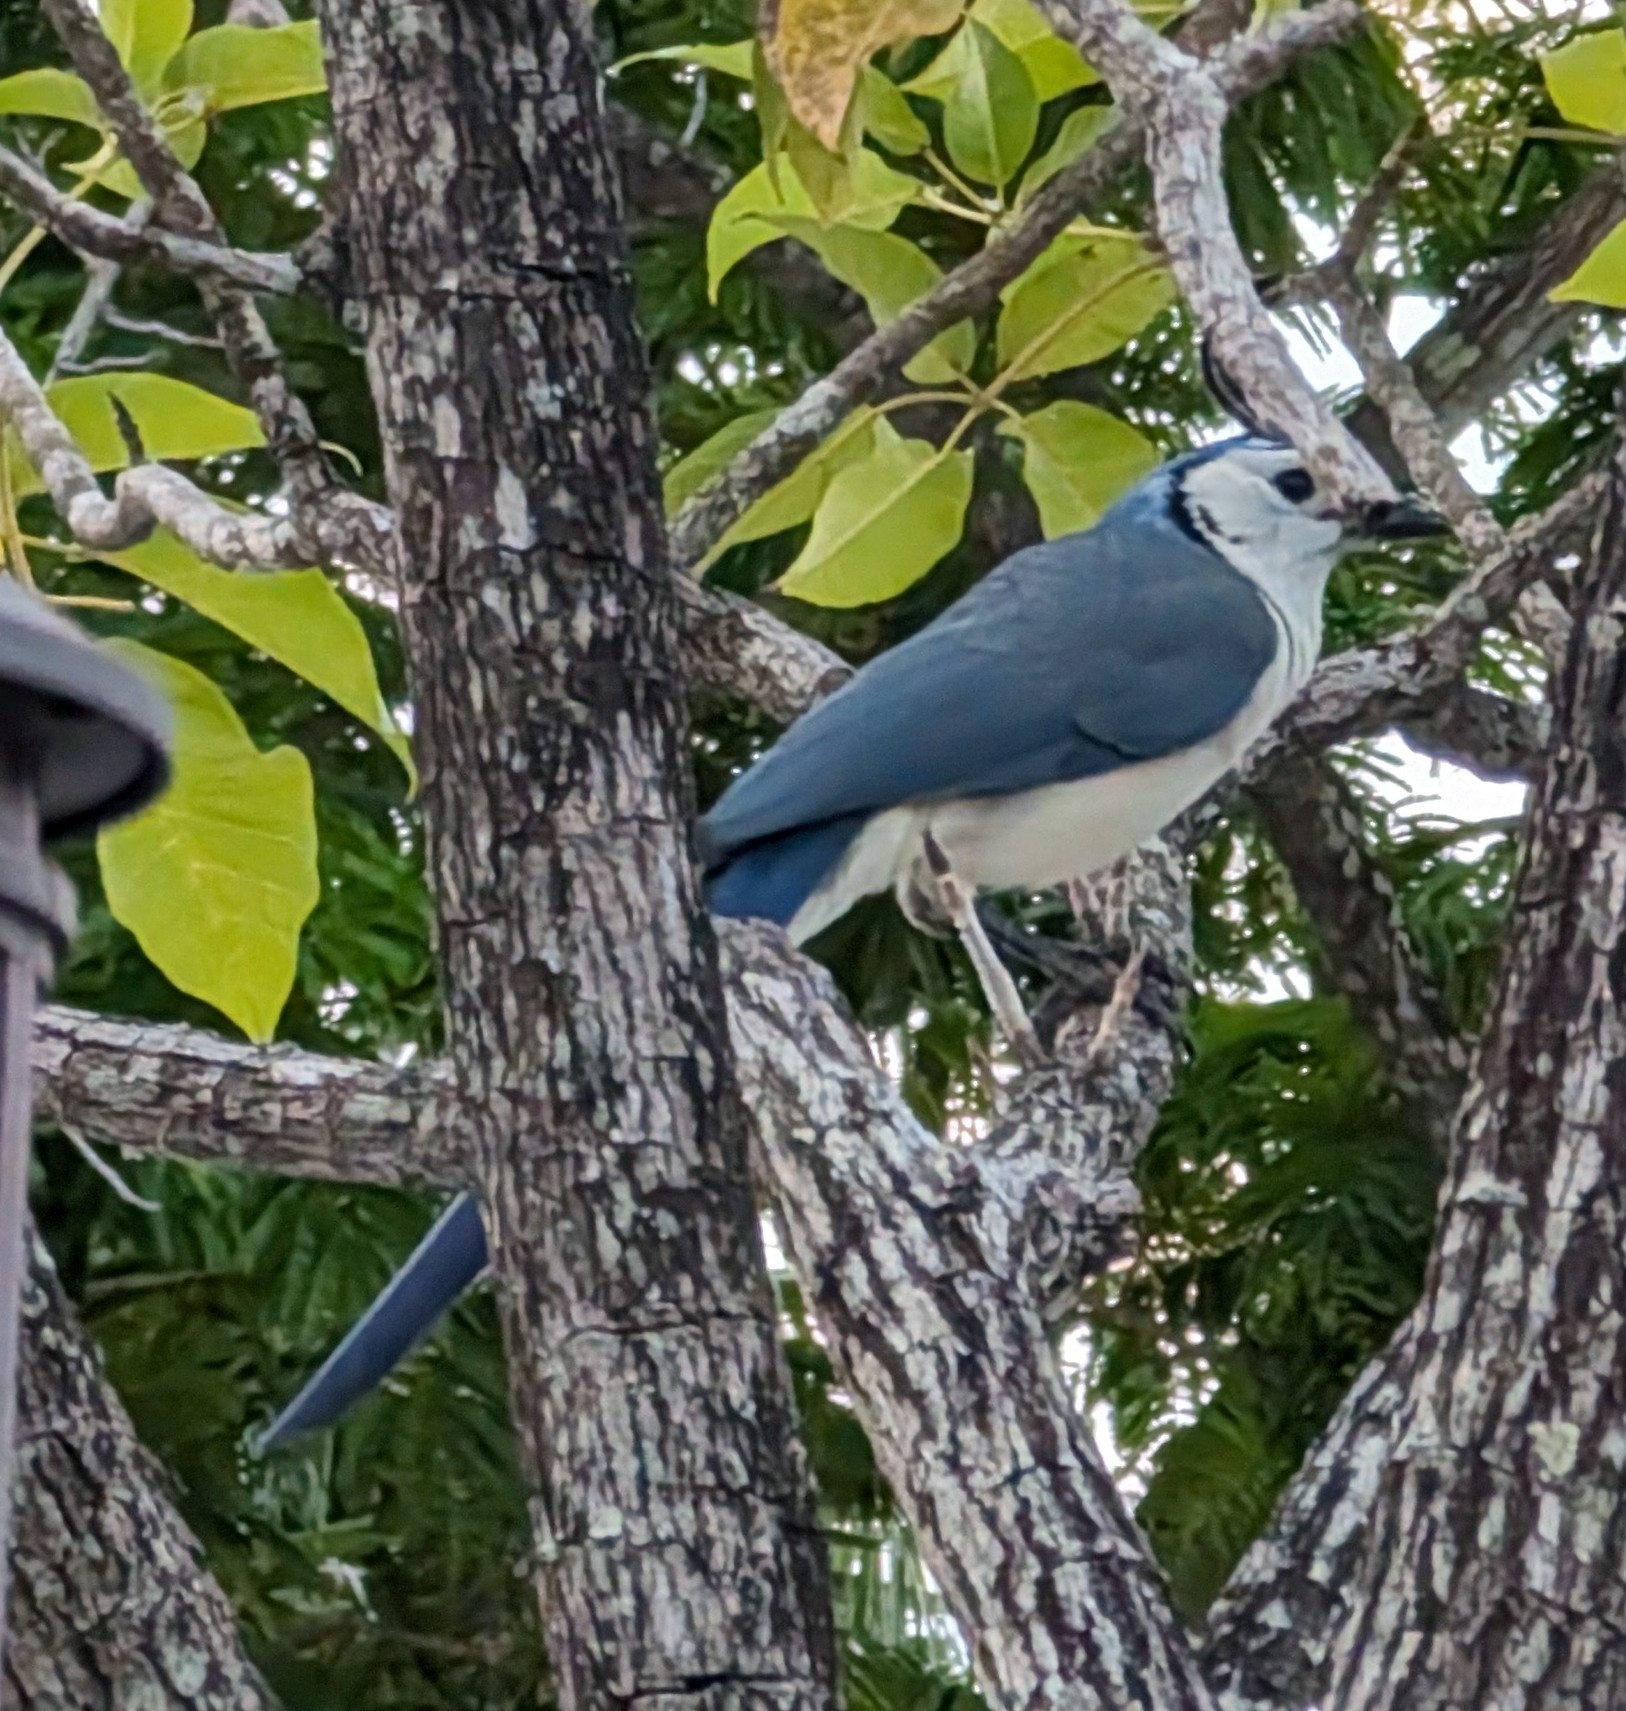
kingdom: Animalia
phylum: Chordata
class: Aves
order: Passeriformes
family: Corvidae
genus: Calocitta
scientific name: Calocitta formosa
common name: White-throated magpie-jay
